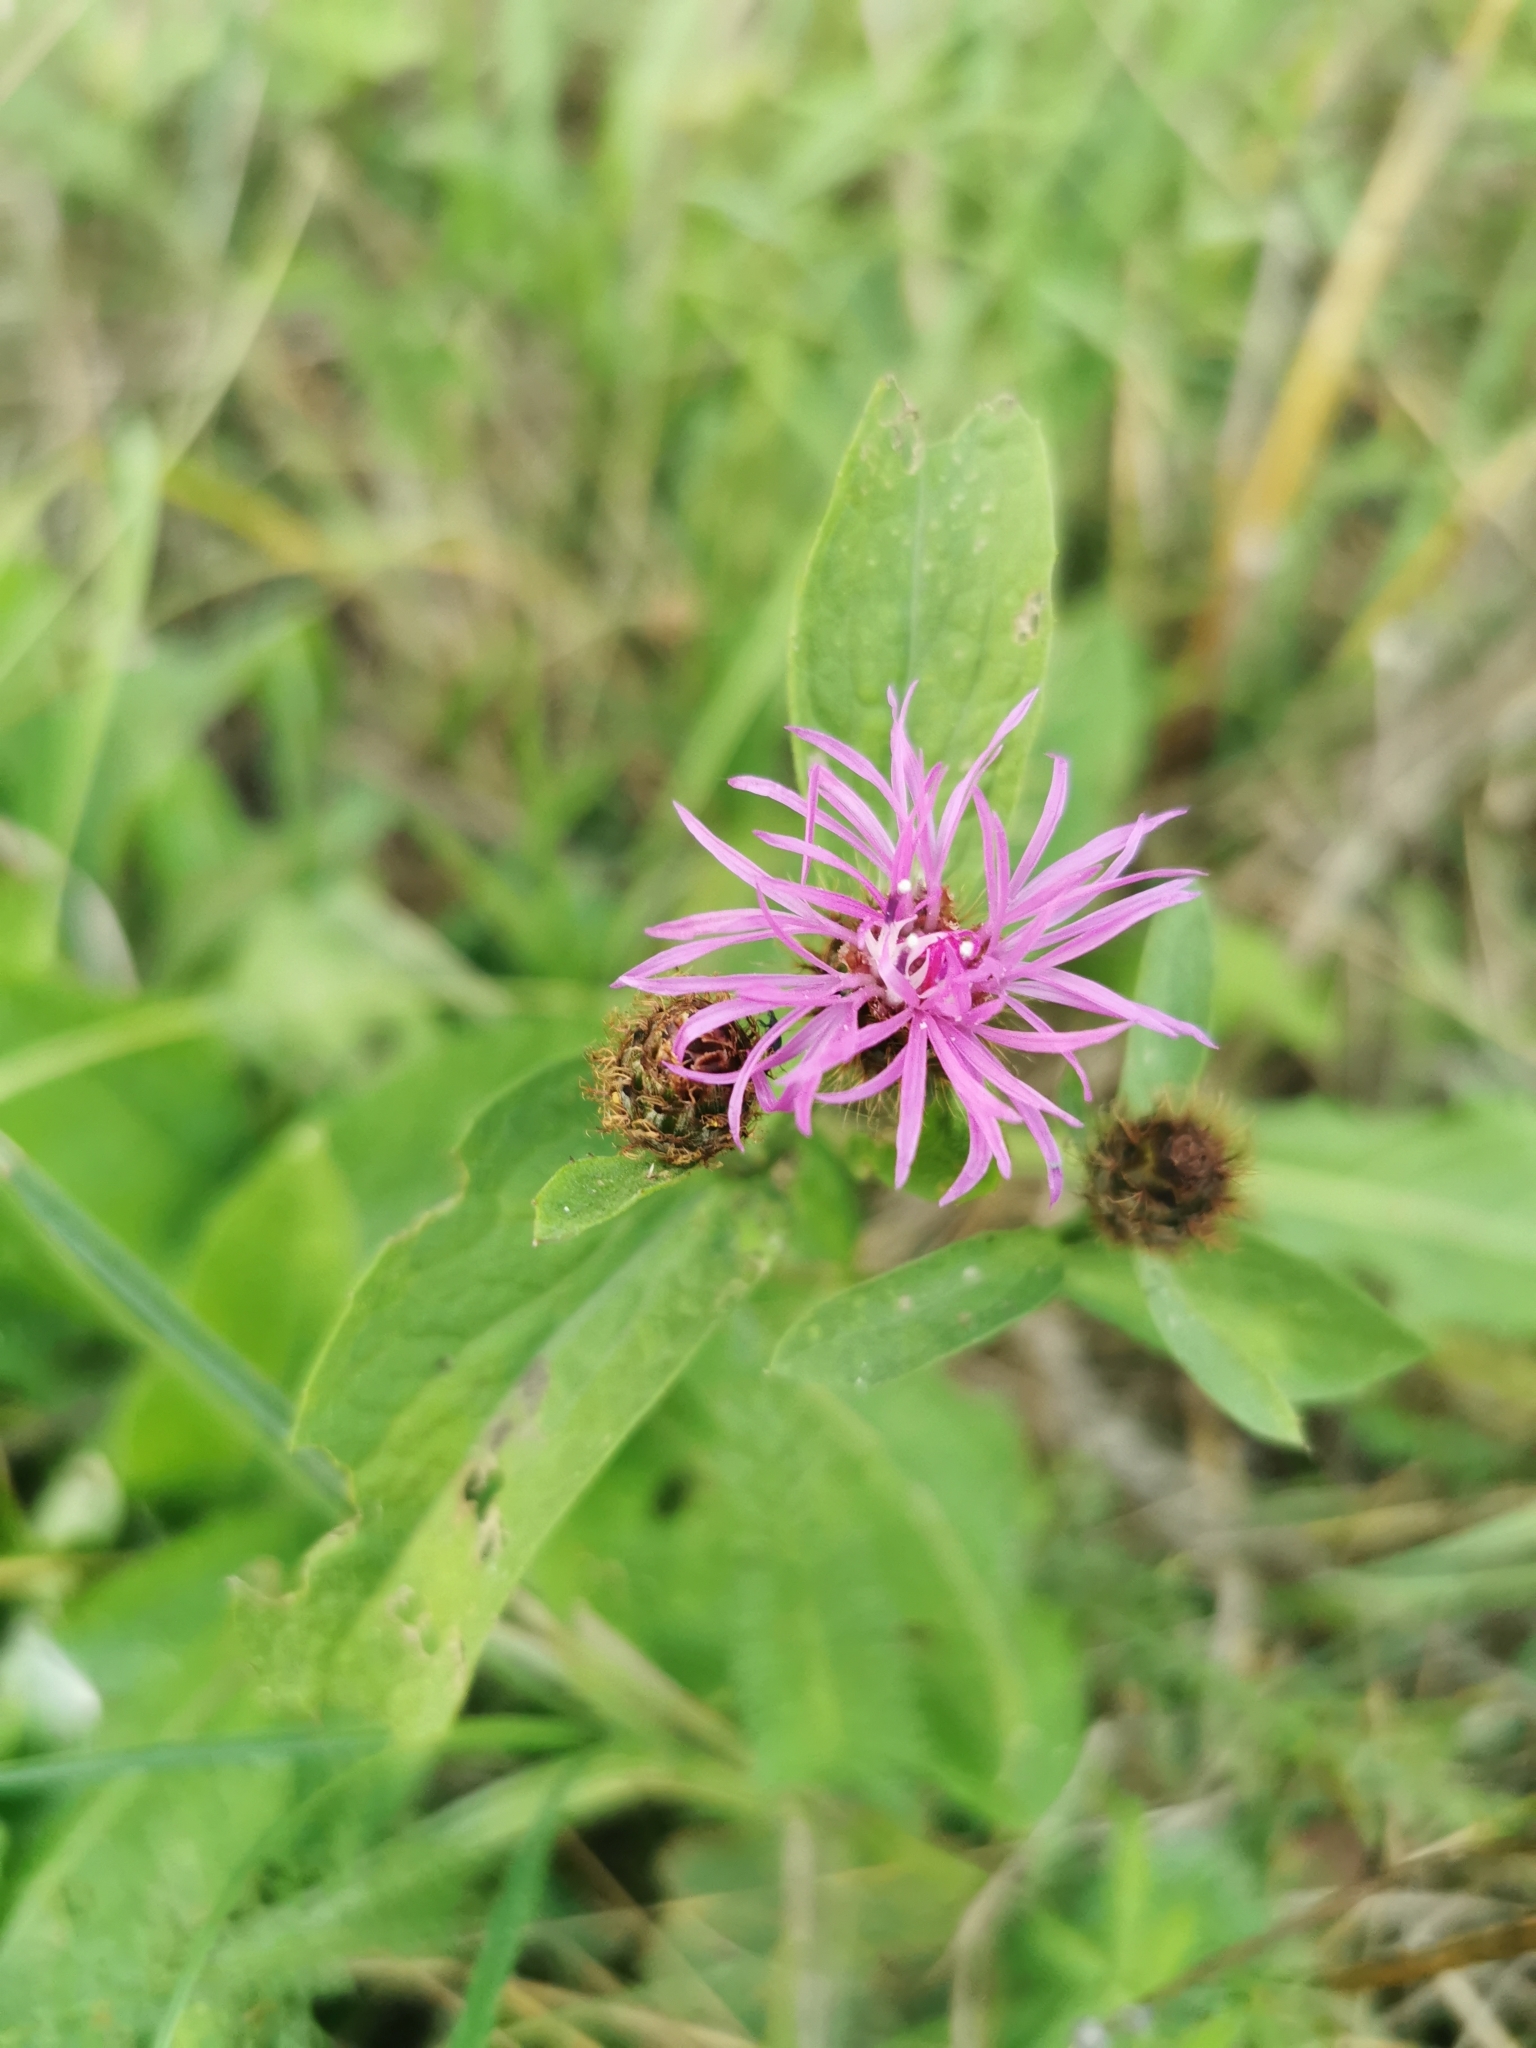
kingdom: Plantae
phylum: Tracheophyta
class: Magnoliopsida
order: Asterales
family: Asteraceae
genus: Centaurea
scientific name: Centaurea phrygia
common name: Wig knapweed
